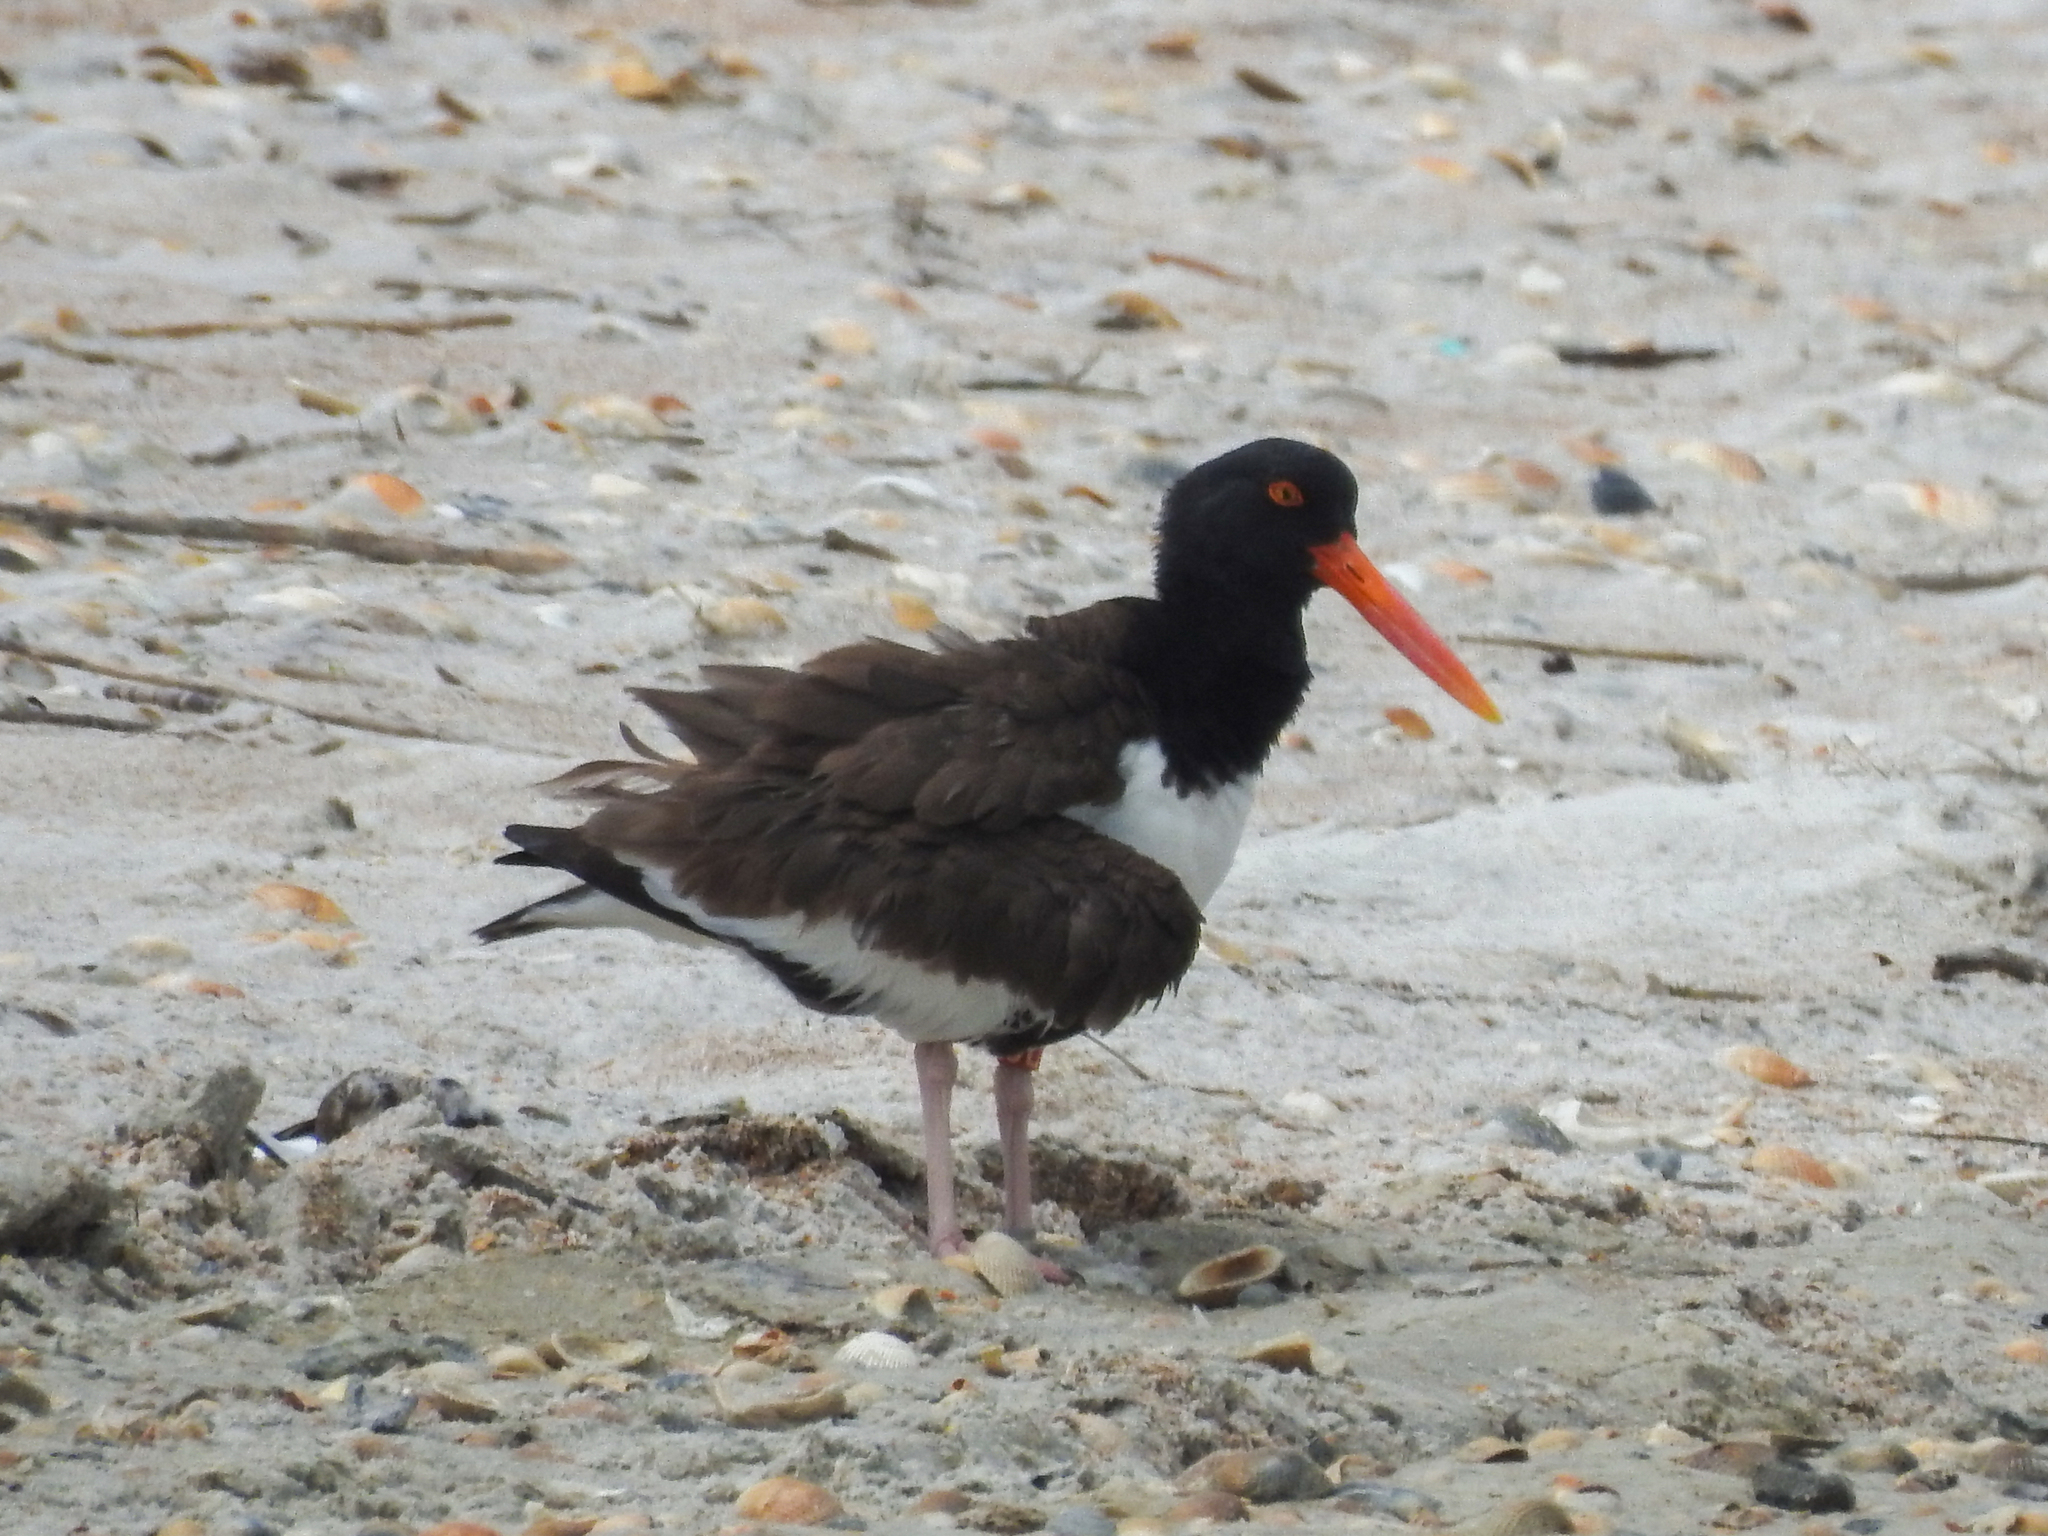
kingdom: Animalia
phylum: Chordata
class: Aves
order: Charadriiformes
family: Haematopodidae
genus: Haematopus
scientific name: Haematopus palliatus
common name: American oystercatcher
